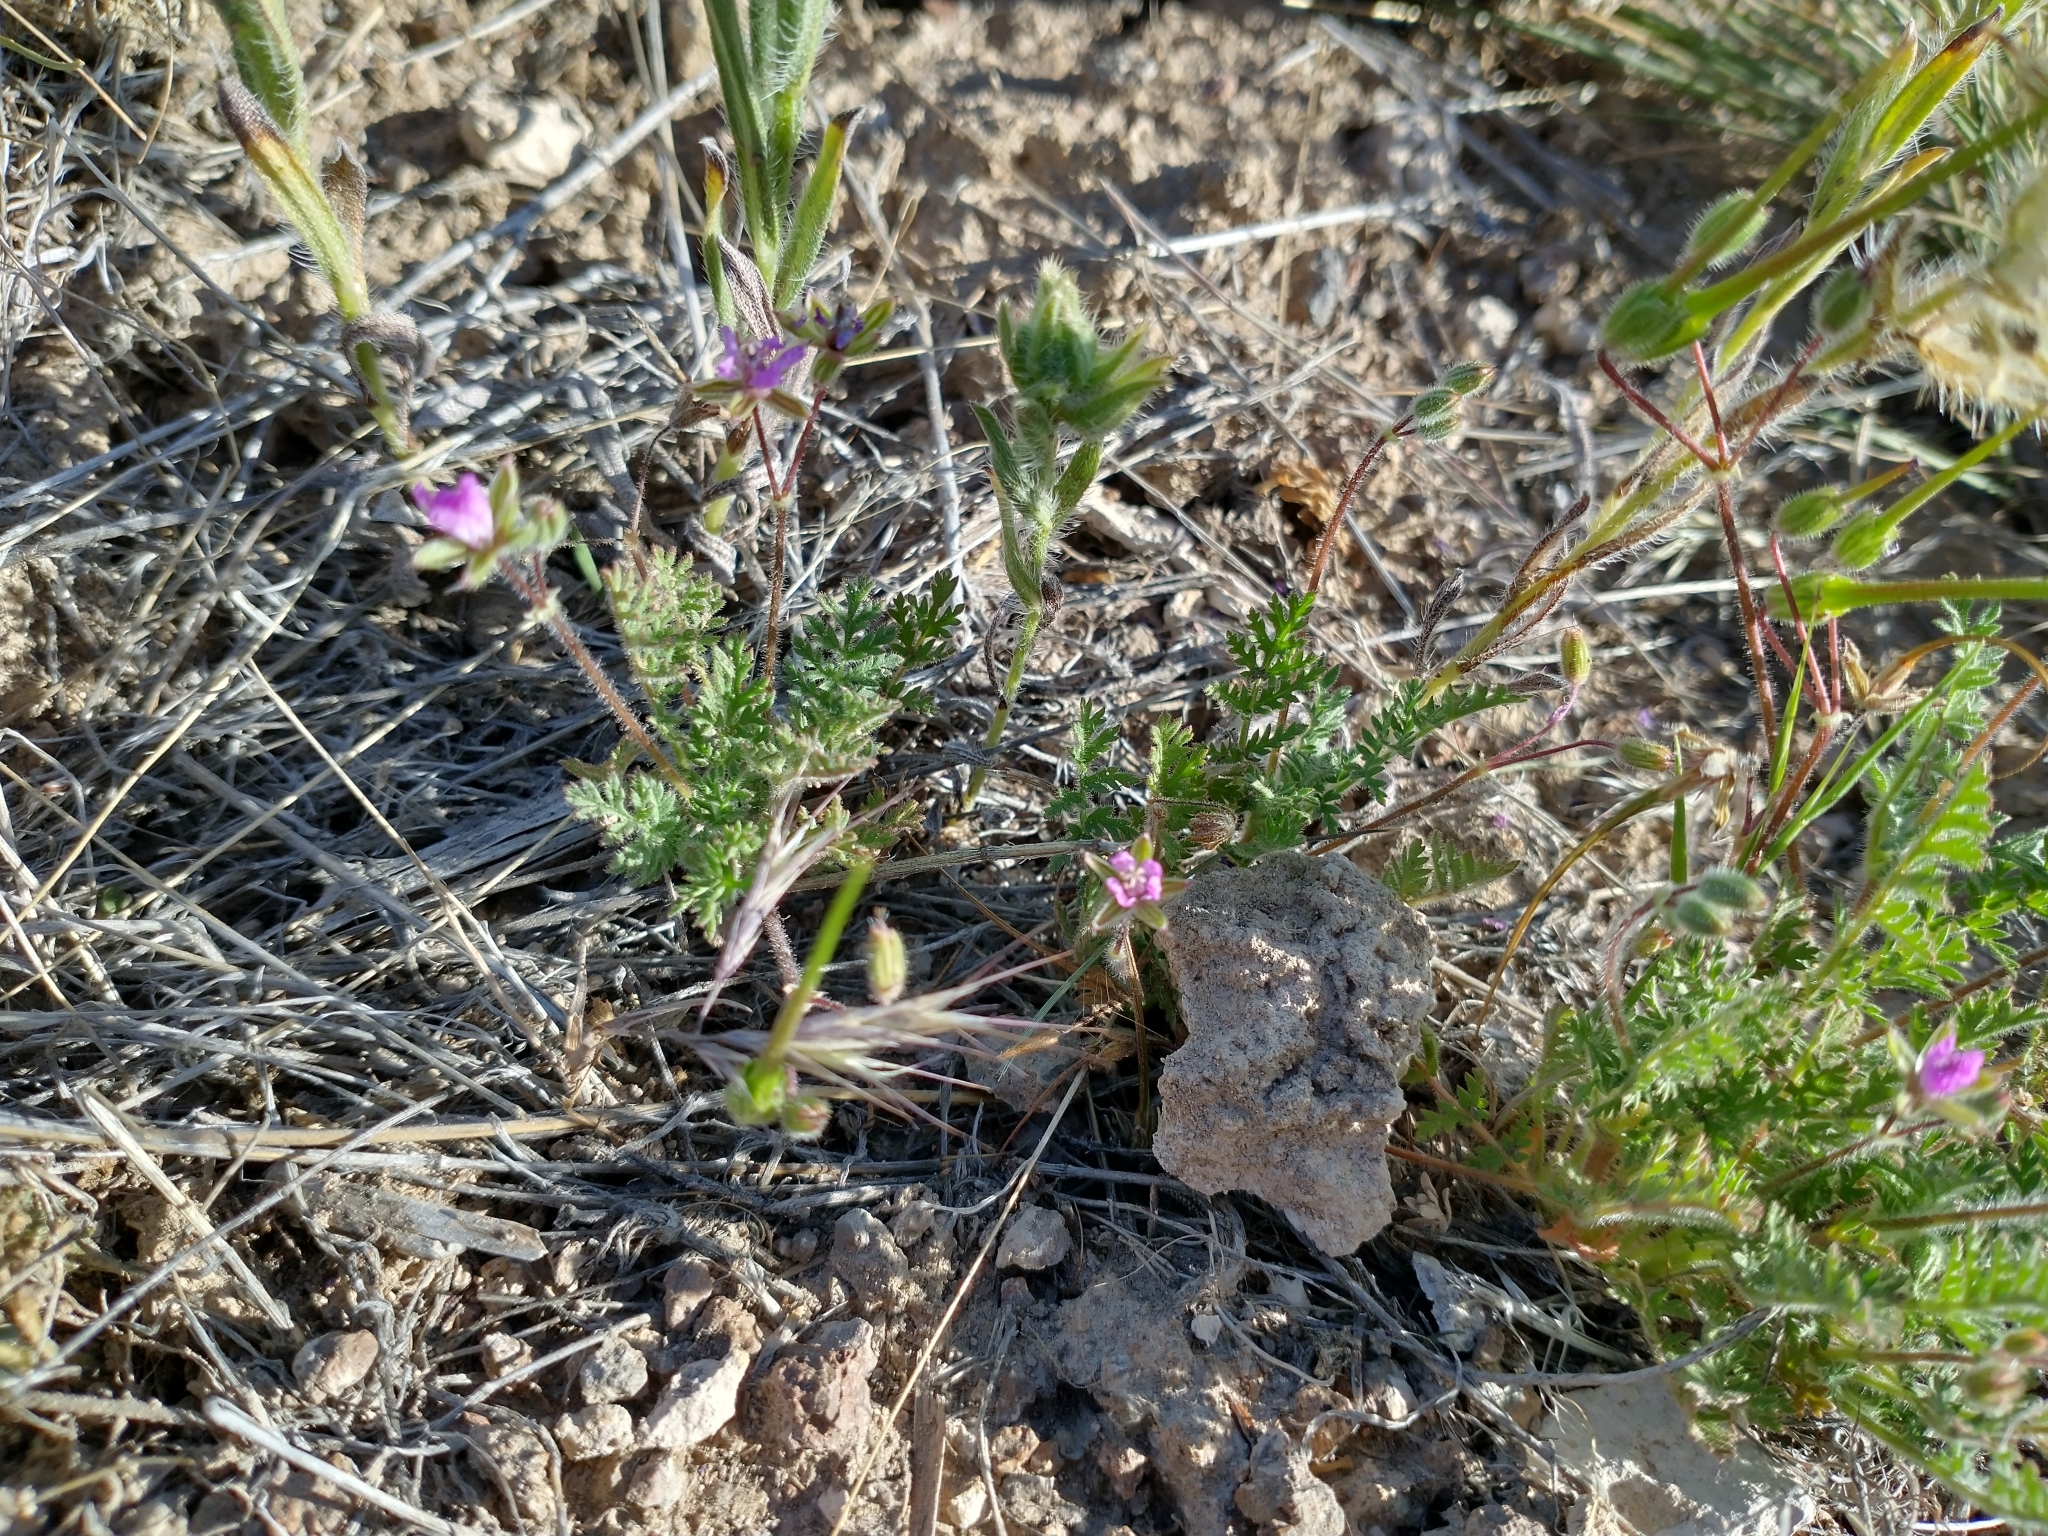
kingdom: Plantae
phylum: Tracheophyta
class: Magnoliopsida
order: Geraniales
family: Geraniaceae
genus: Erodium
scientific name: Erodium cicutarium
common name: Common stork's-bill
